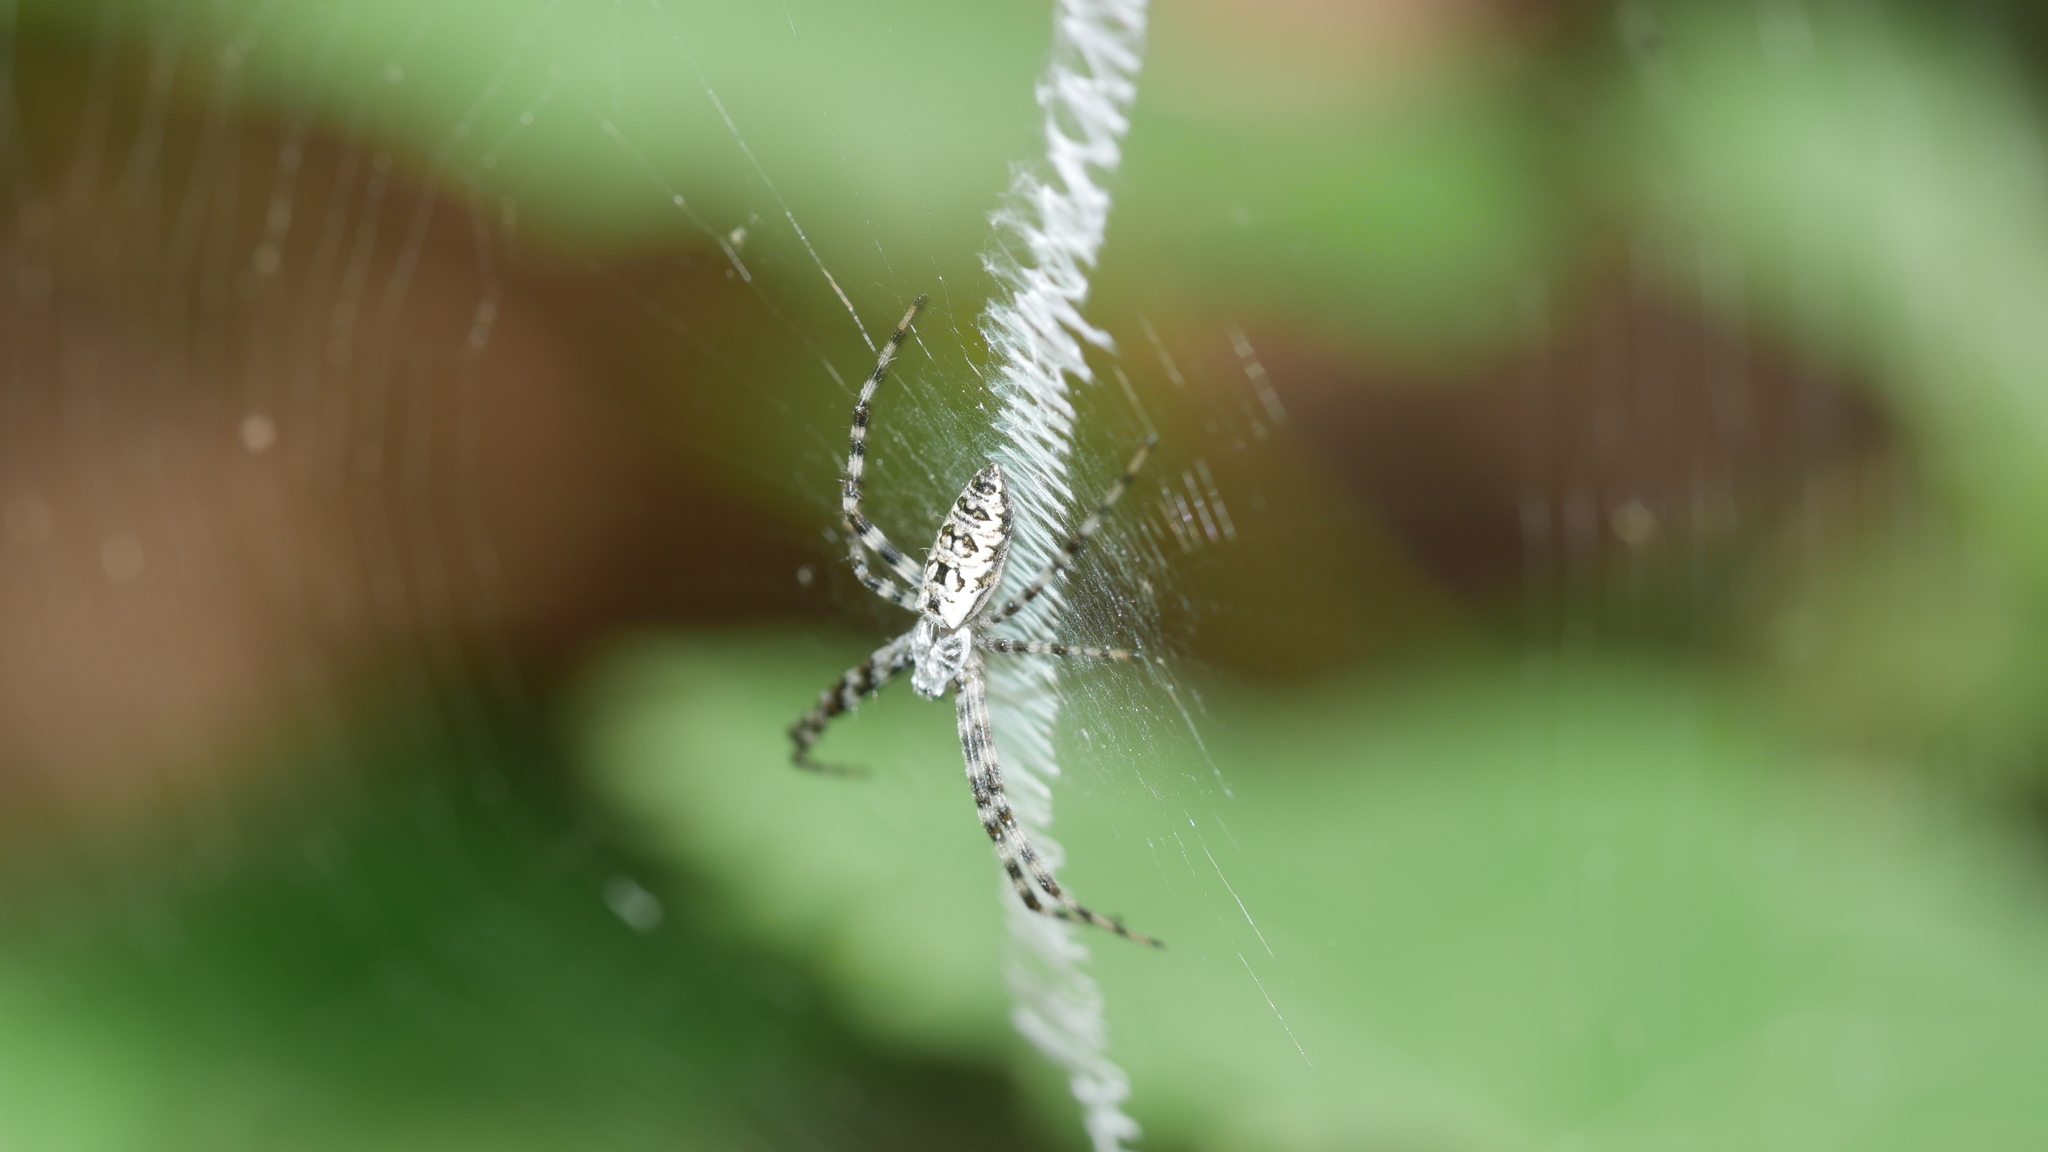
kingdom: Animalia
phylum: Arthropoda
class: Arachnida
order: Araneae
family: Araneidae
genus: Argiope
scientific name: Argiope aurantia
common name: Orb weavers
